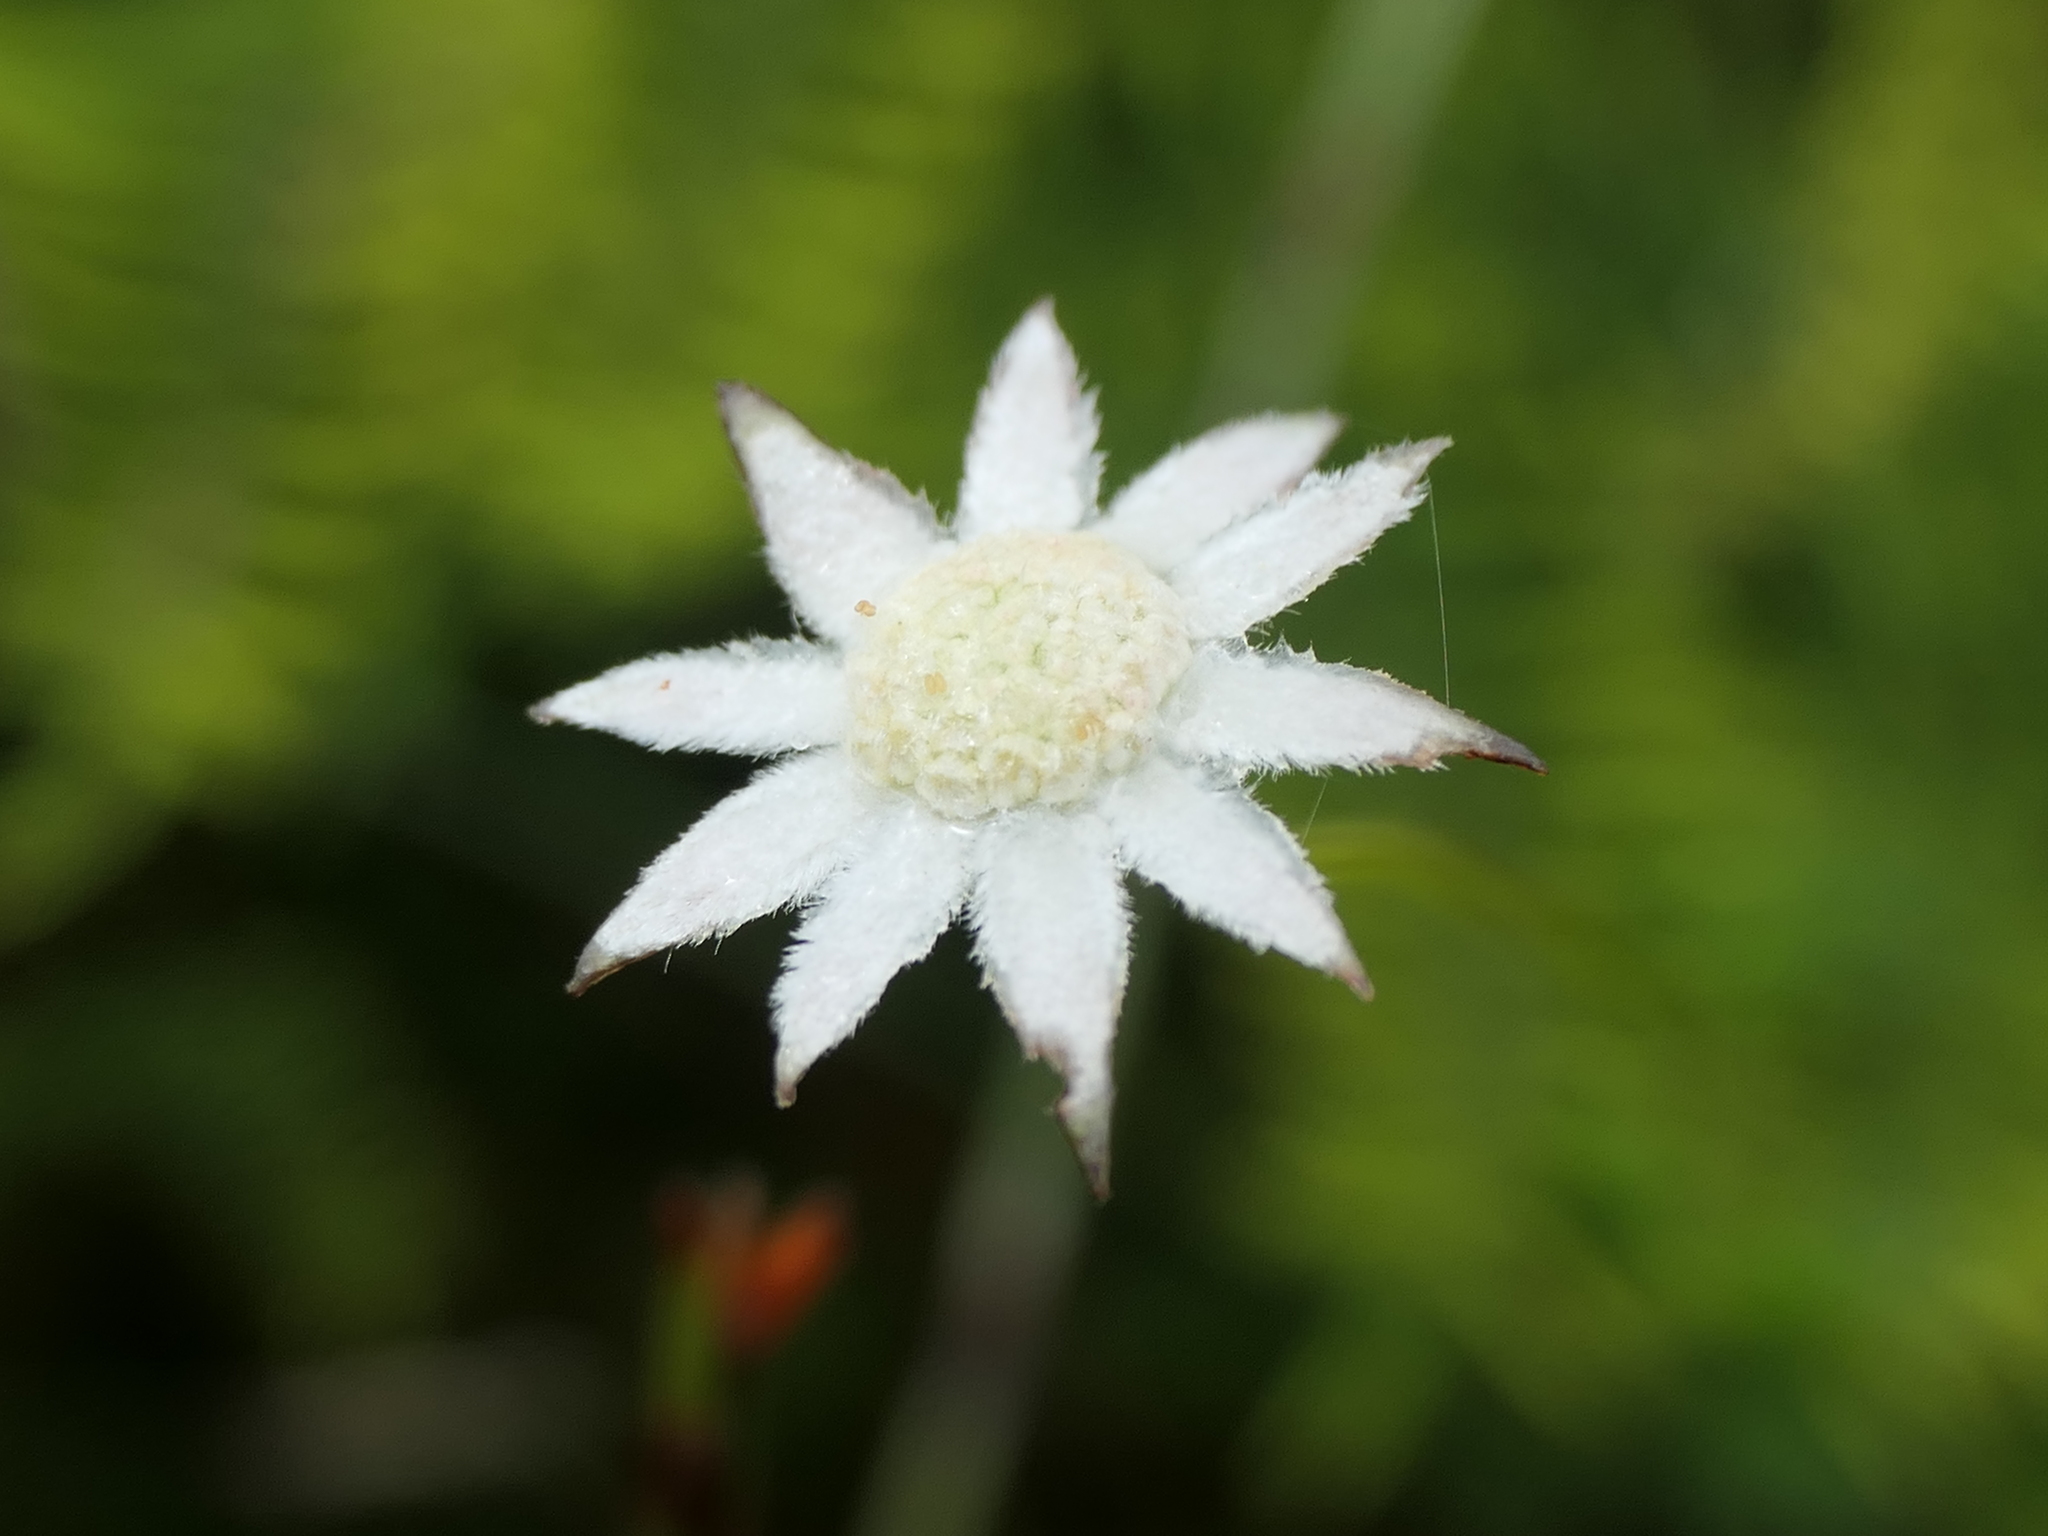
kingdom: Plantae
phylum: Tracheophyta
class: Magnoliopsida
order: Apiales
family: Apiaceae
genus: Actinotus
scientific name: Actinotus minor
